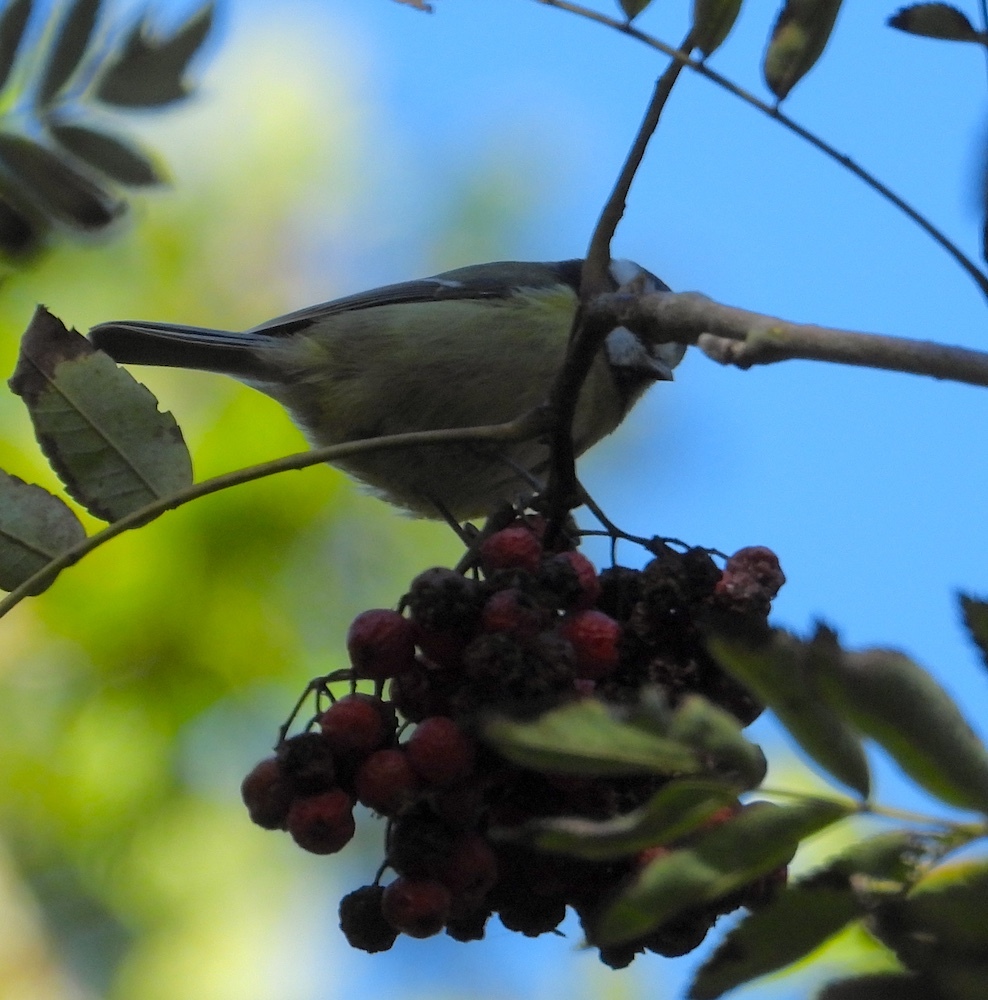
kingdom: Animalia
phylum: Chordata
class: Aves
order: Passeriformes
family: Paridae
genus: Cyanistes
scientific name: Cyanistes caeruleus
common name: Eurasian blue tit
